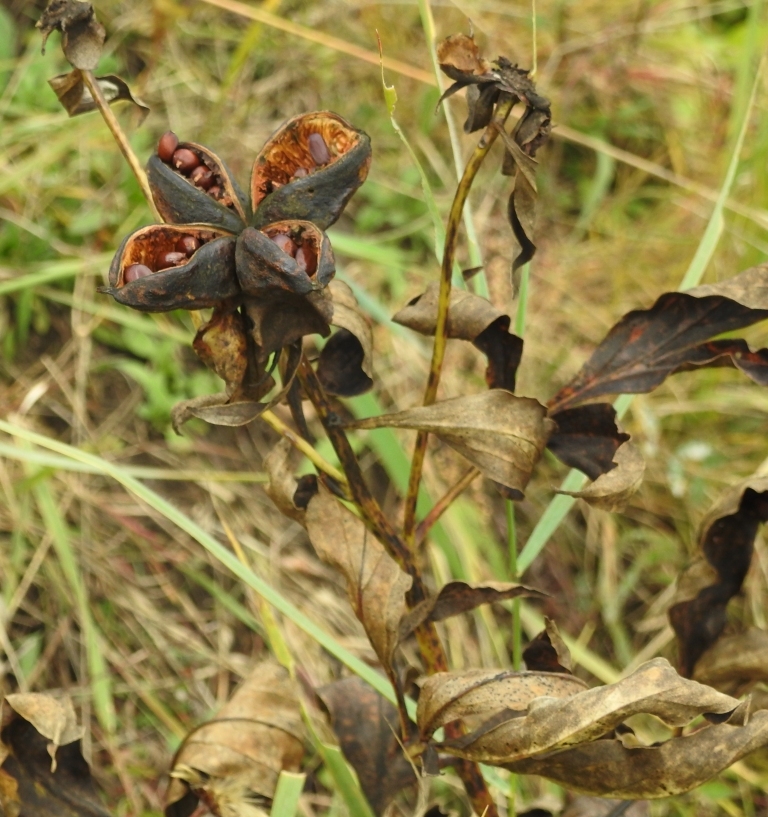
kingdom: Plantae
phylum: Tracheophyta
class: Magnoliopsida
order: Saxifragales
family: Paeoniaceae
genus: Paeonia
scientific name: Paeonia lactiflora
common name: Chinese peony
